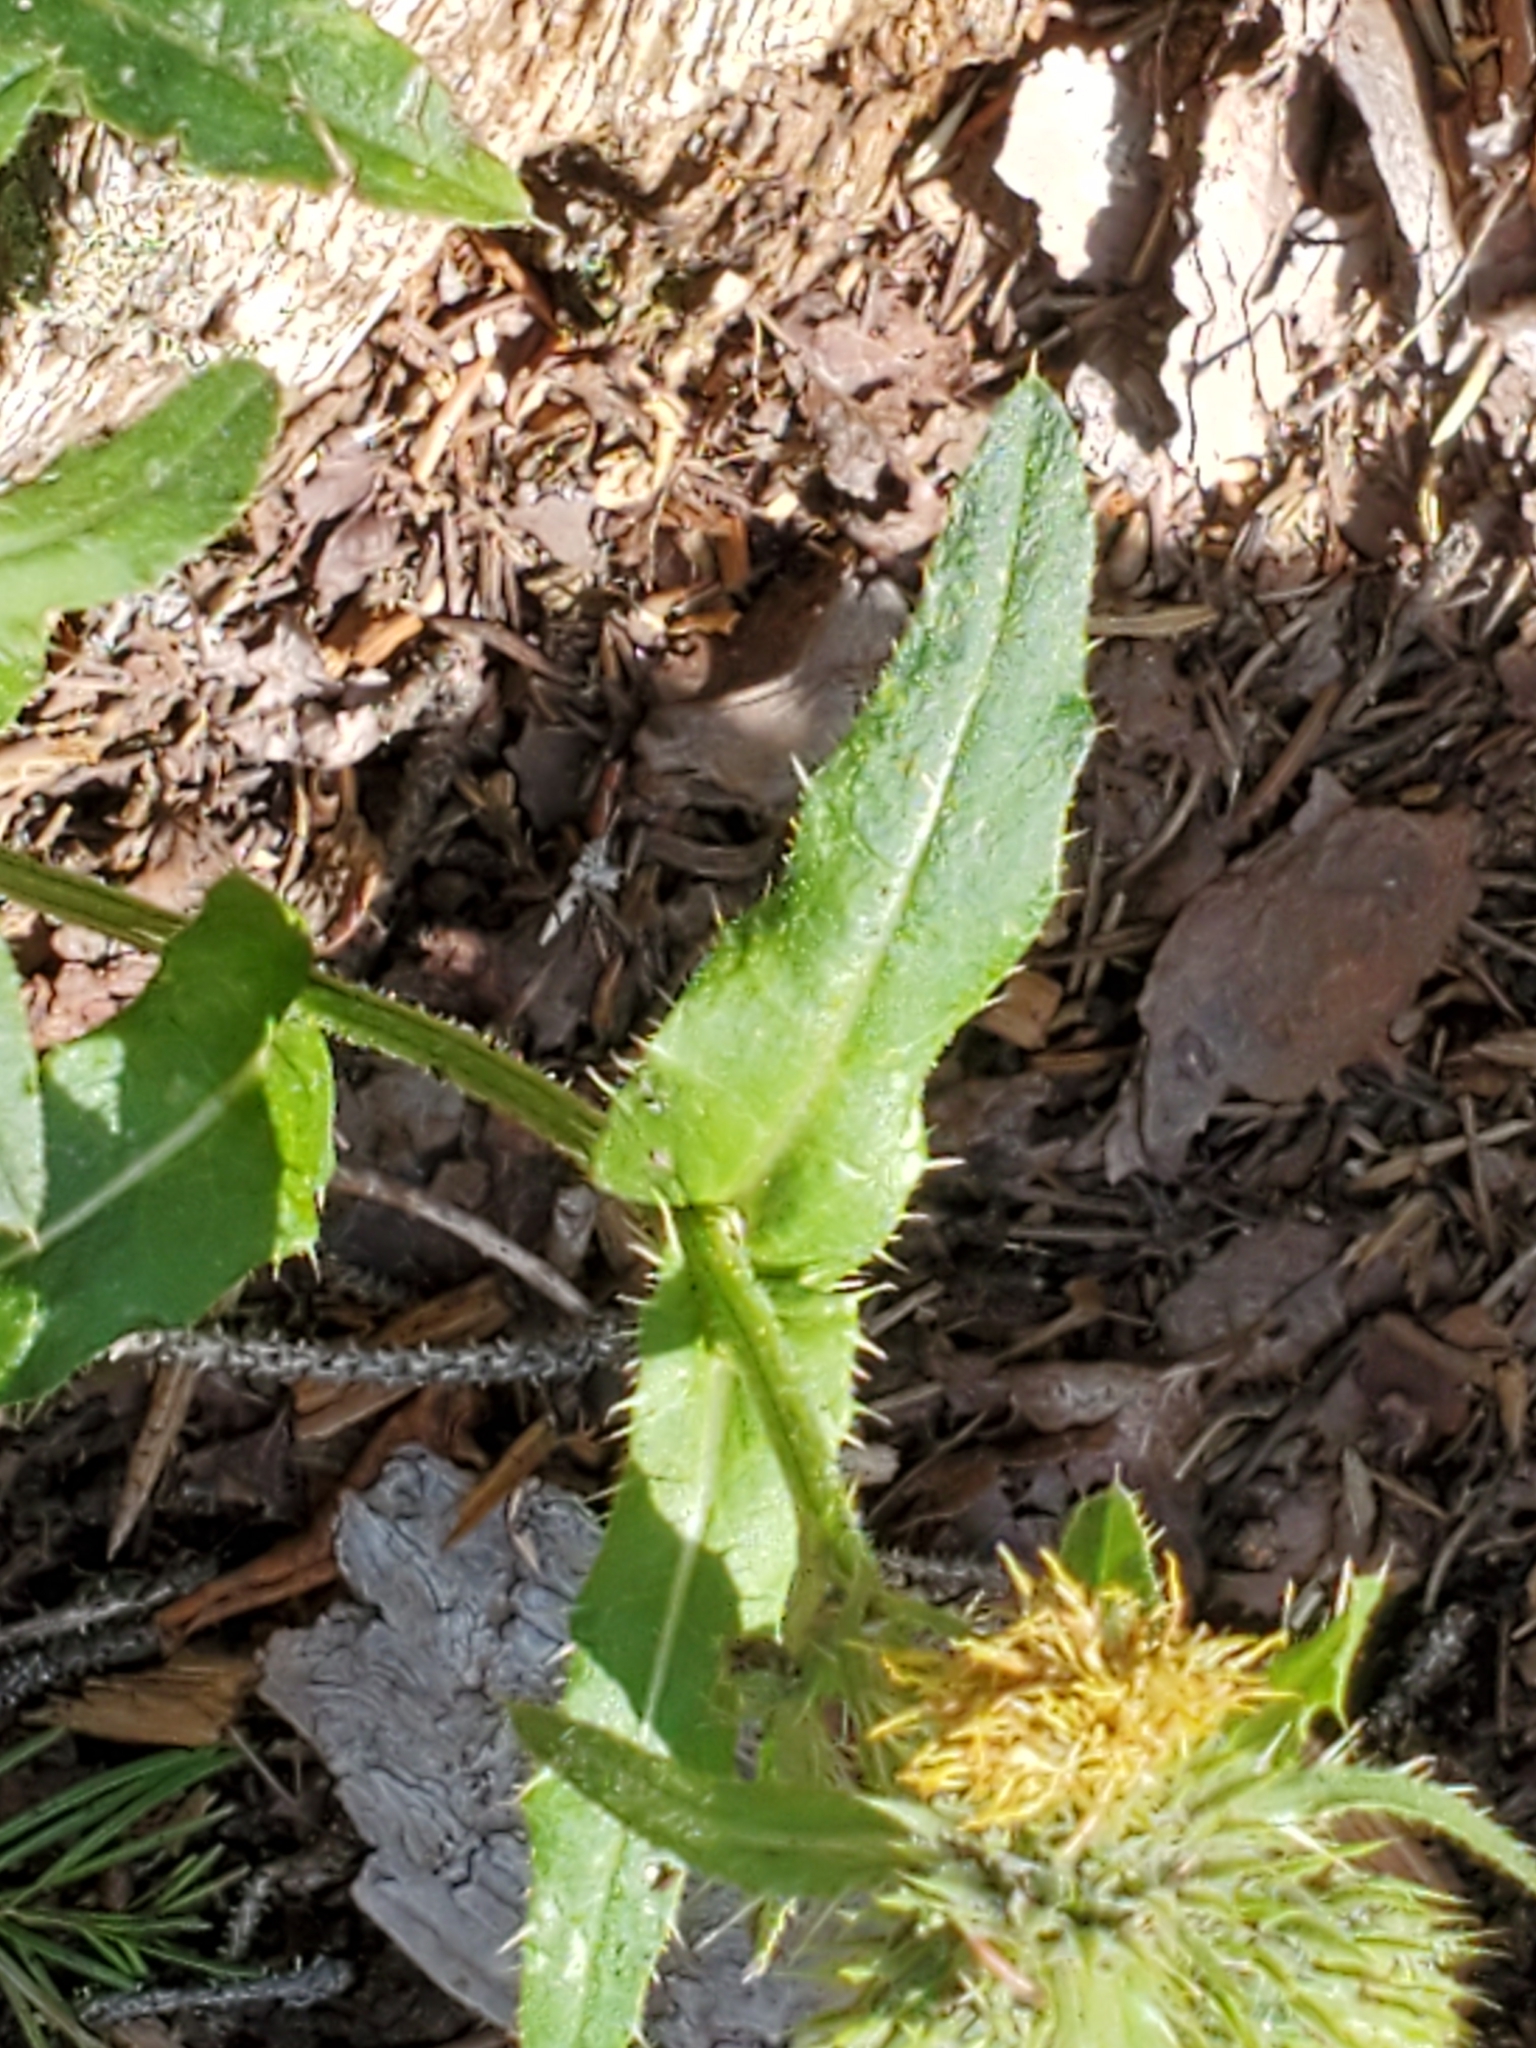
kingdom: Plantae
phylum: Tracheophyta
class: Magnoliopsida
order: Asterales
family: Asteraceae
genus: Cirsium
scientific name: Cirsium parryi
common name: Parry's thistle
